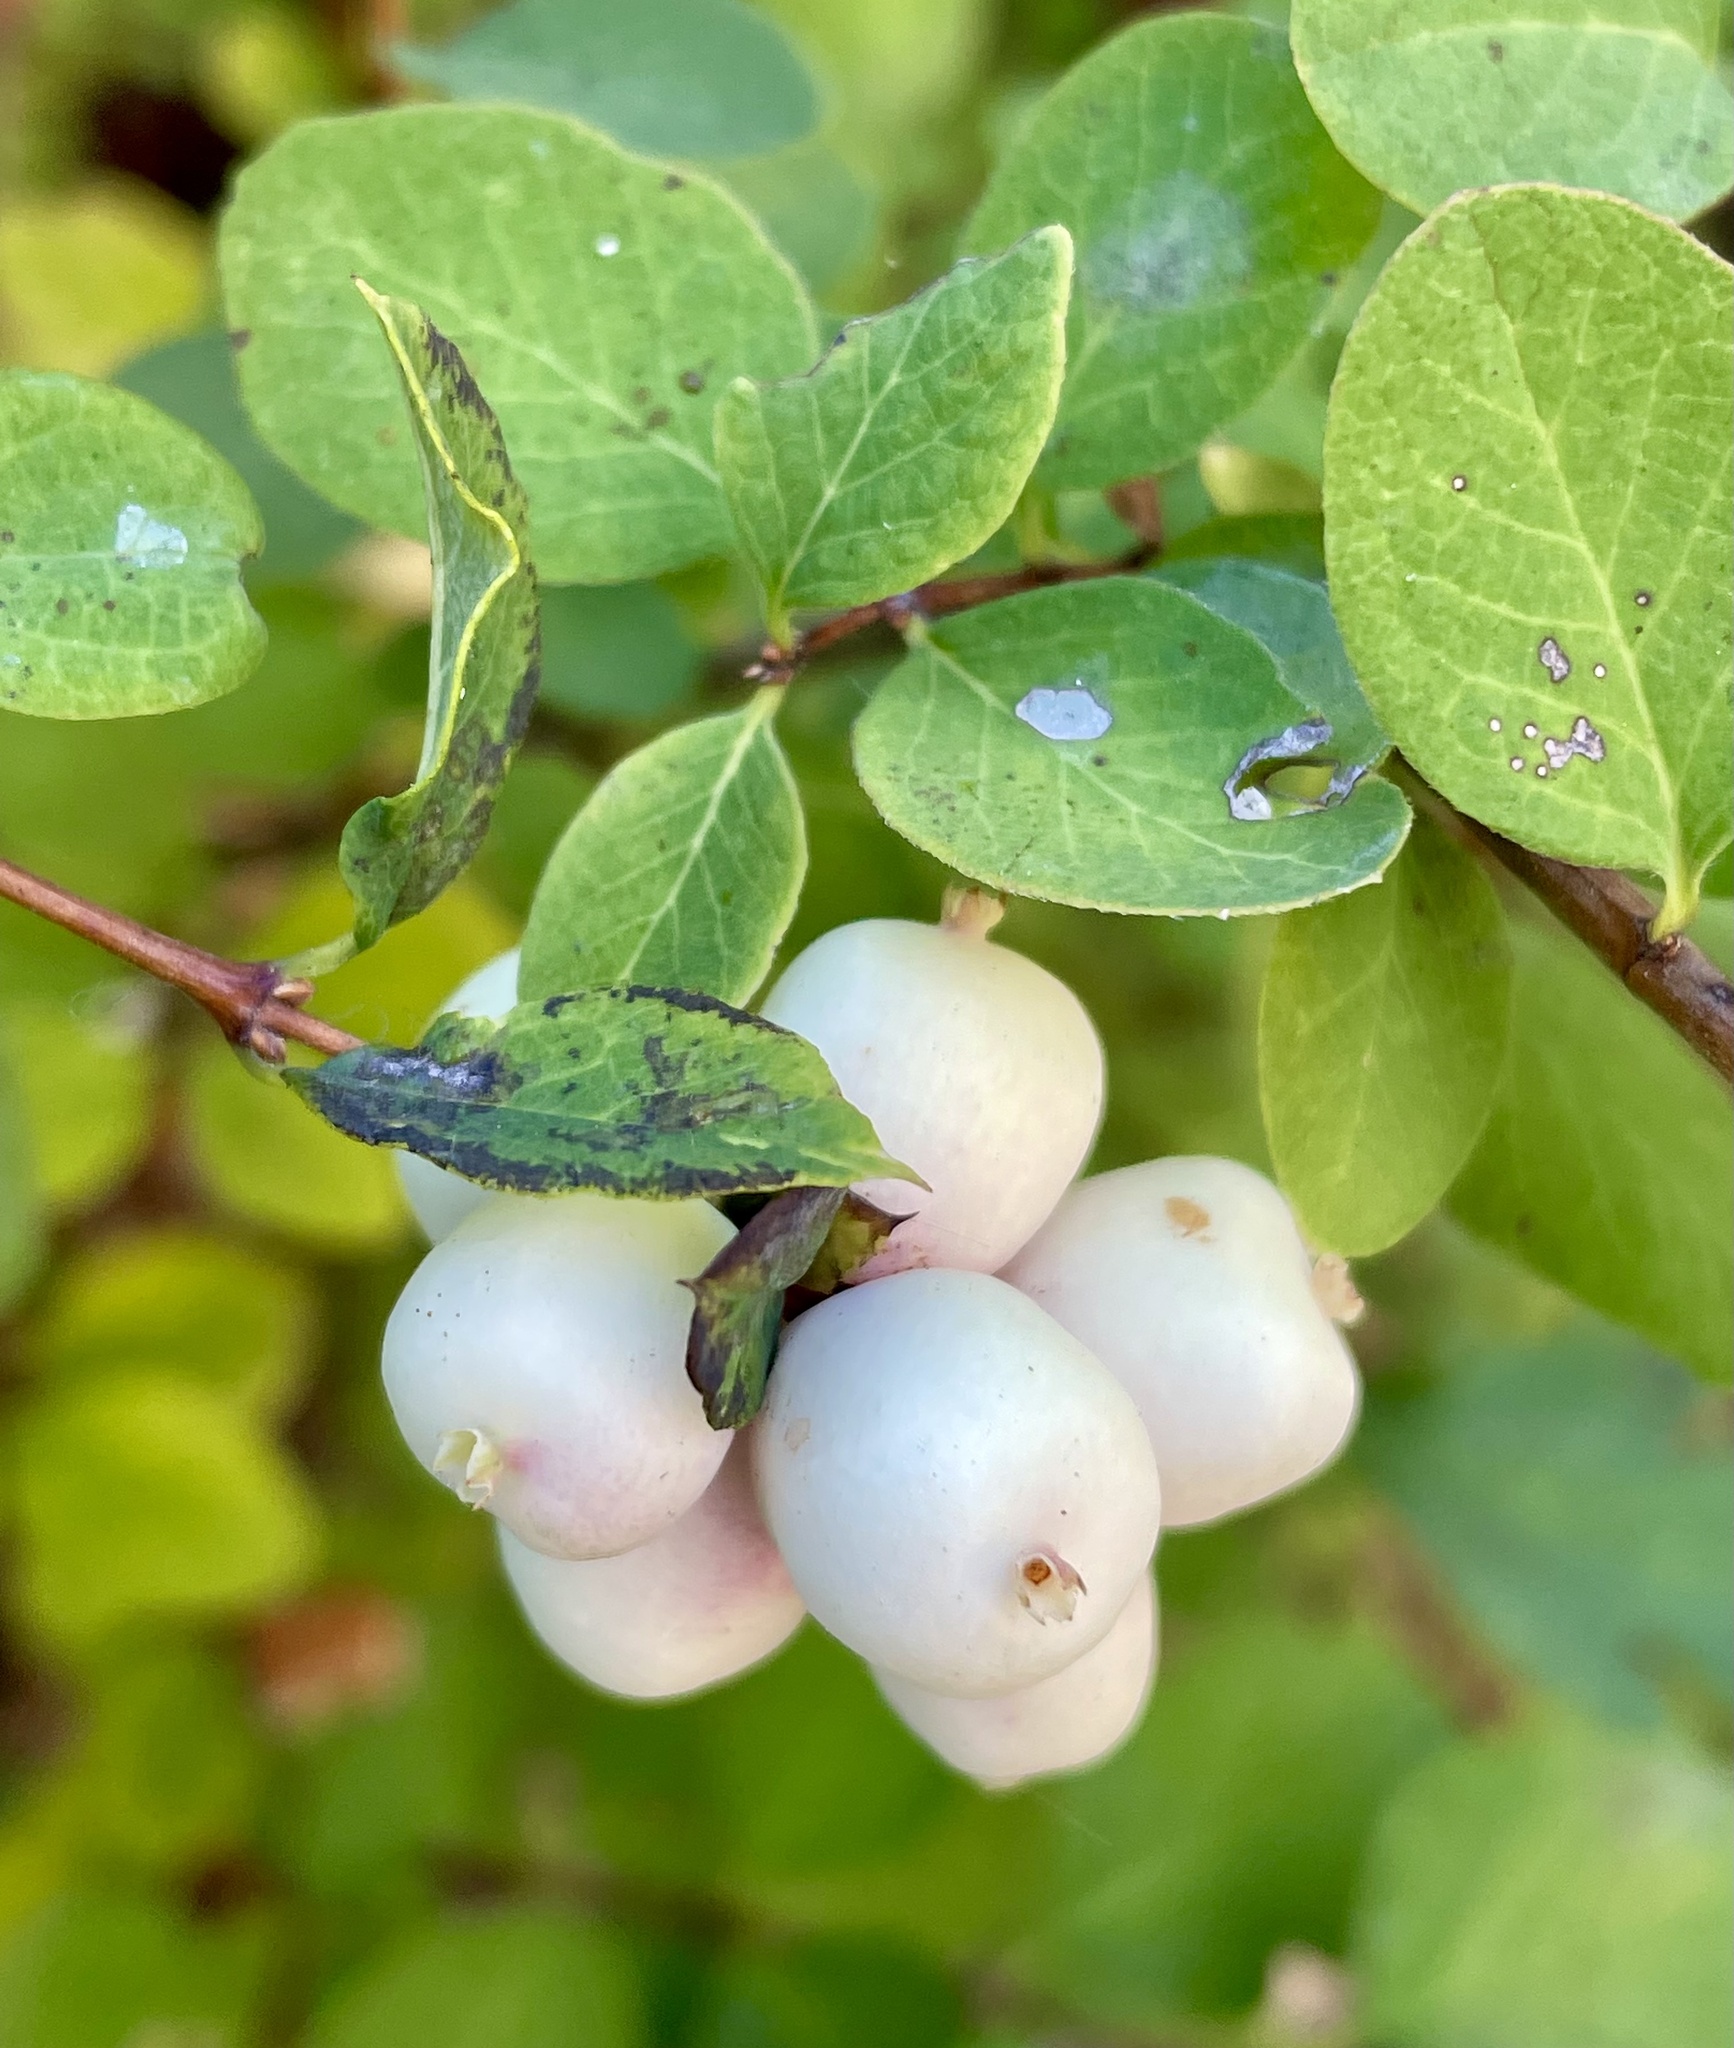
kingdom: Plantae
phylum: Tracheophyta
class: Magnoliopsida
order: Dipsacales
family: Caprifoliaceae
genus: Symphoricarpos
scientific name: Symphoricarpos albus
